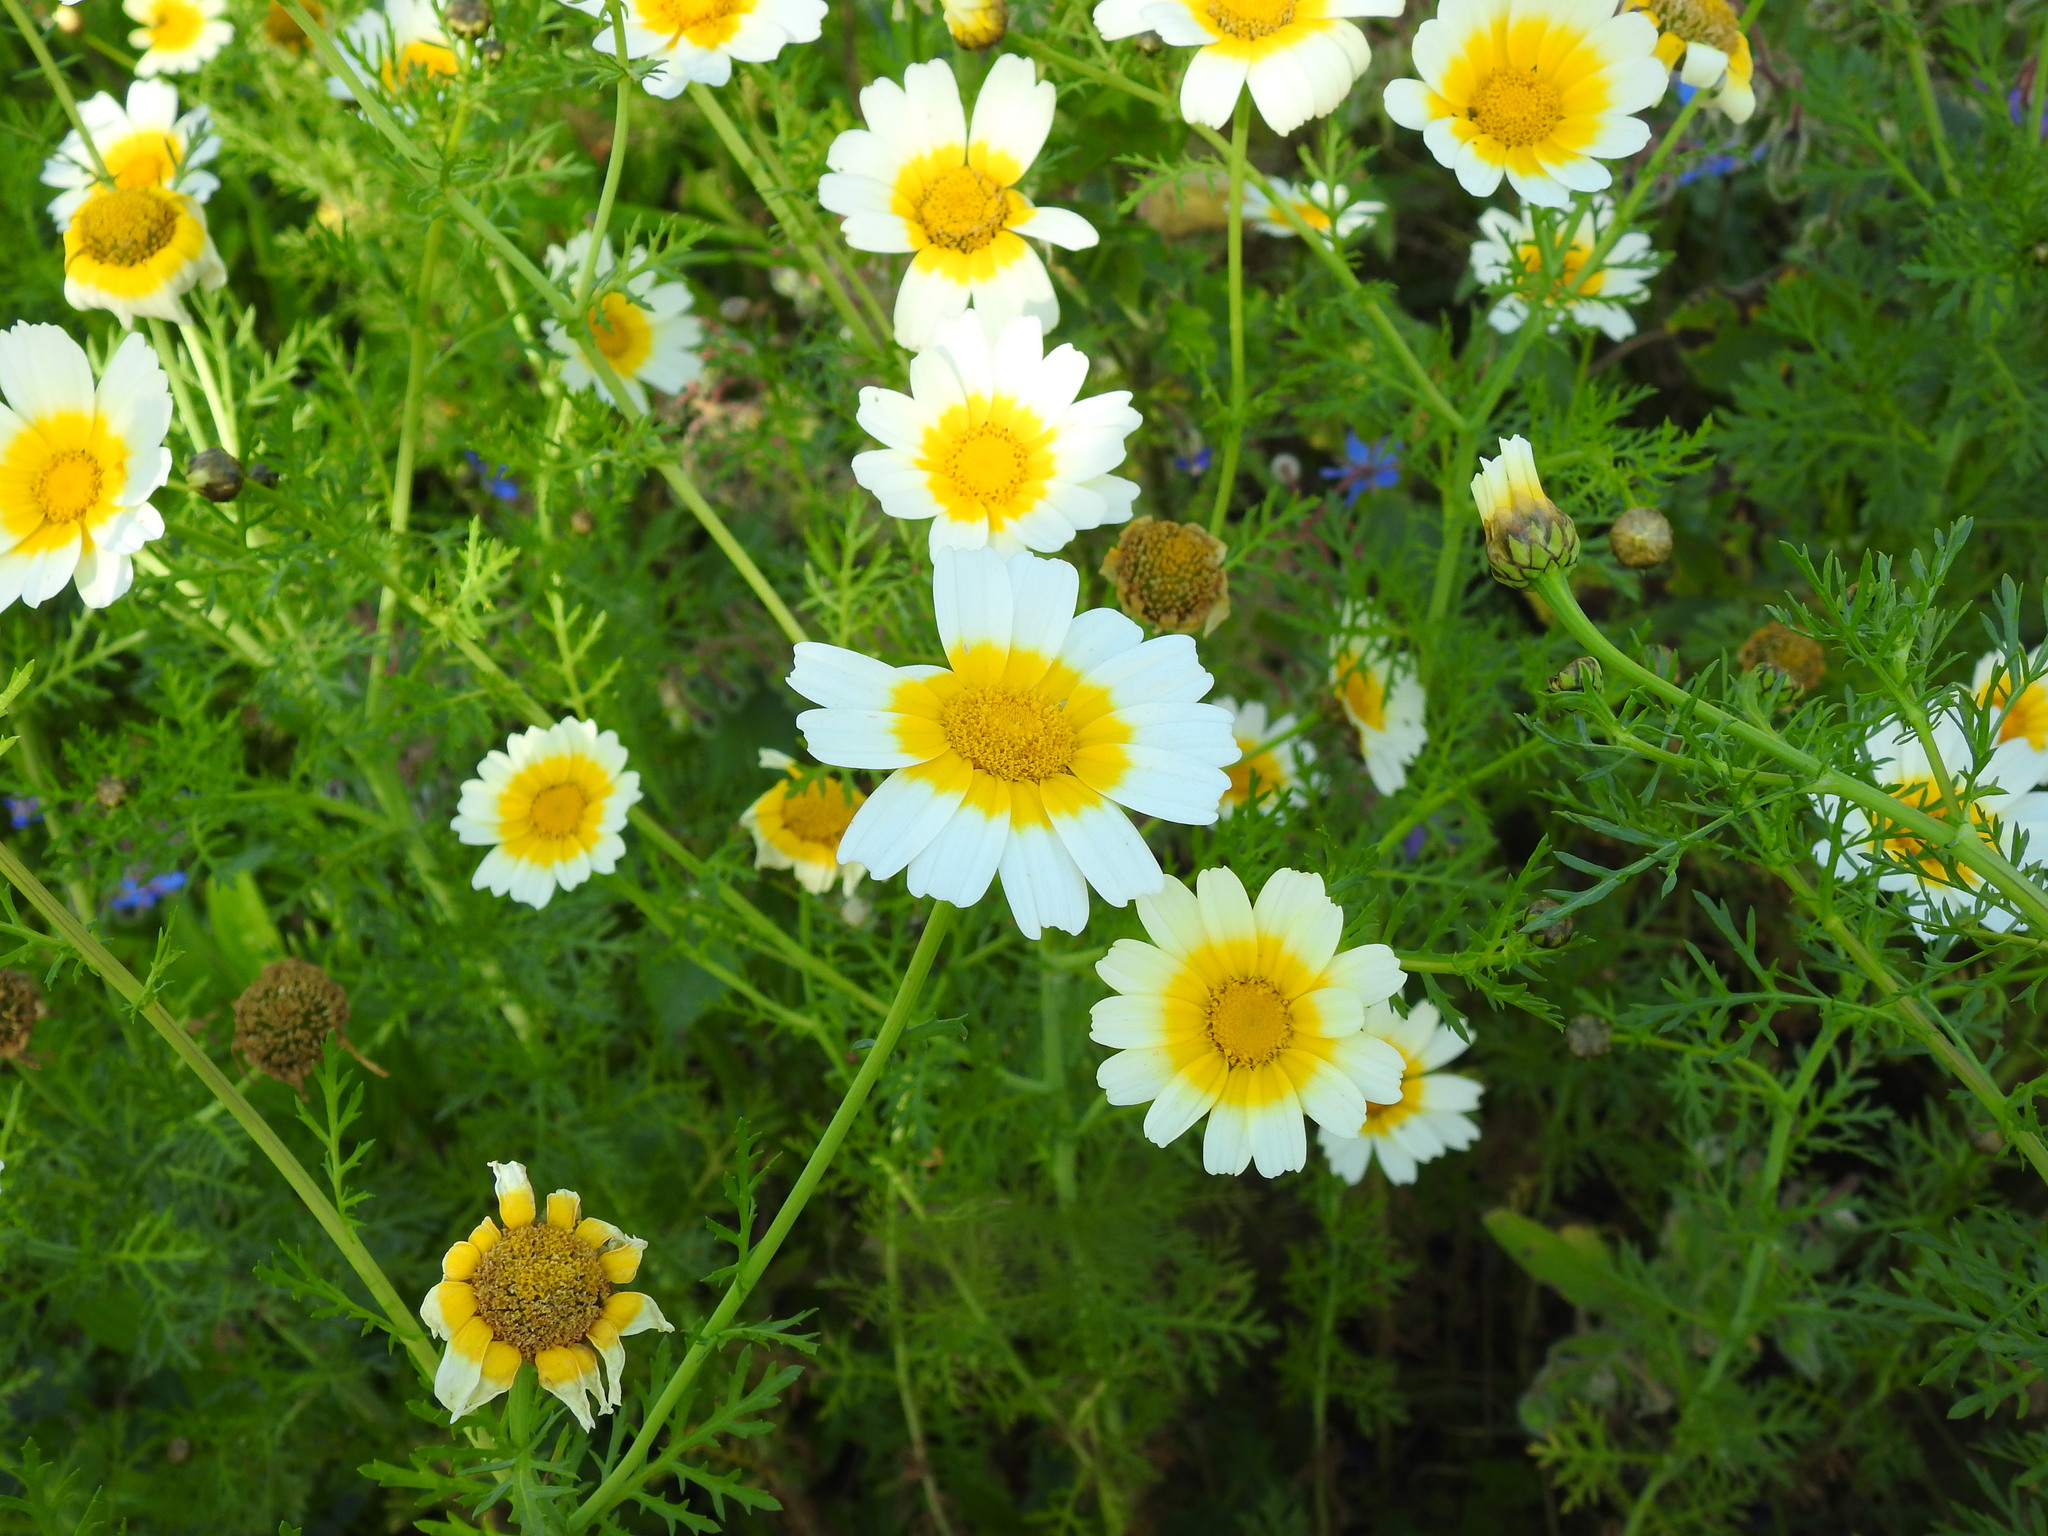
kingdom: Plantae
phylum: Tracheophyta
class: Magnoliopsida
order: Asterales
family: Asteraceae
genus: Glebionis
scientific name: Glebionis coronaria
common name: Crowndaisy
